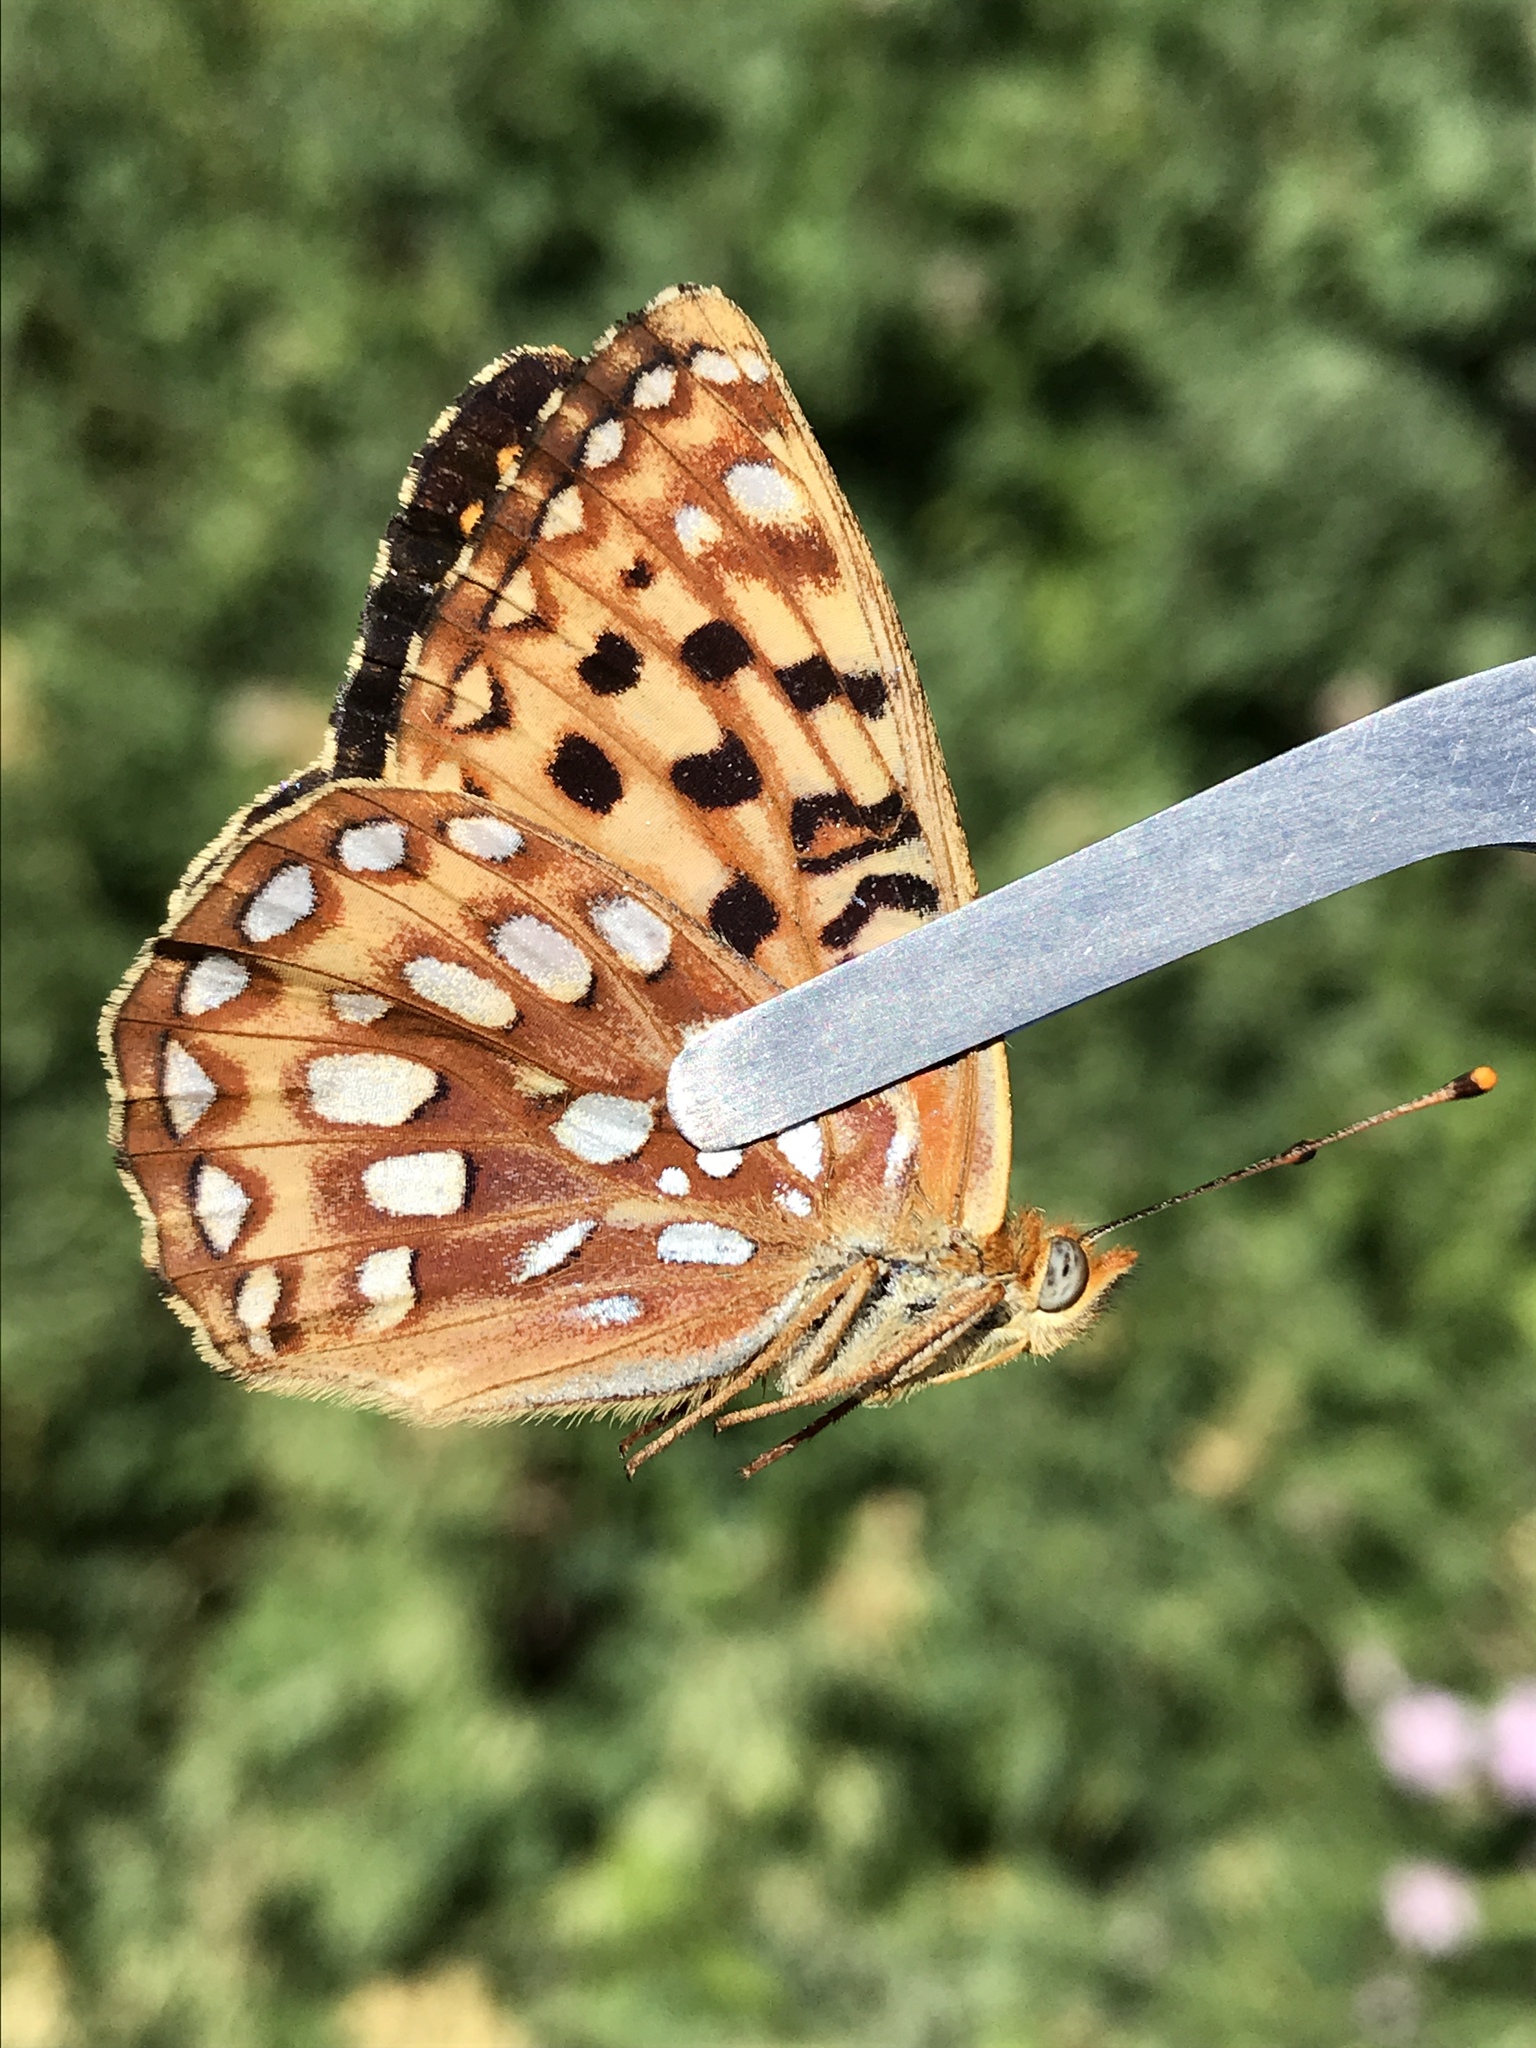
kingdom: Animalia
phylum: Arthropoda
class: Insecta
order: Lepidoptera
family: Nymphalidae
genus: Speyeria
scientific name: Speyeria zerene
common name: Zerene fritillary
